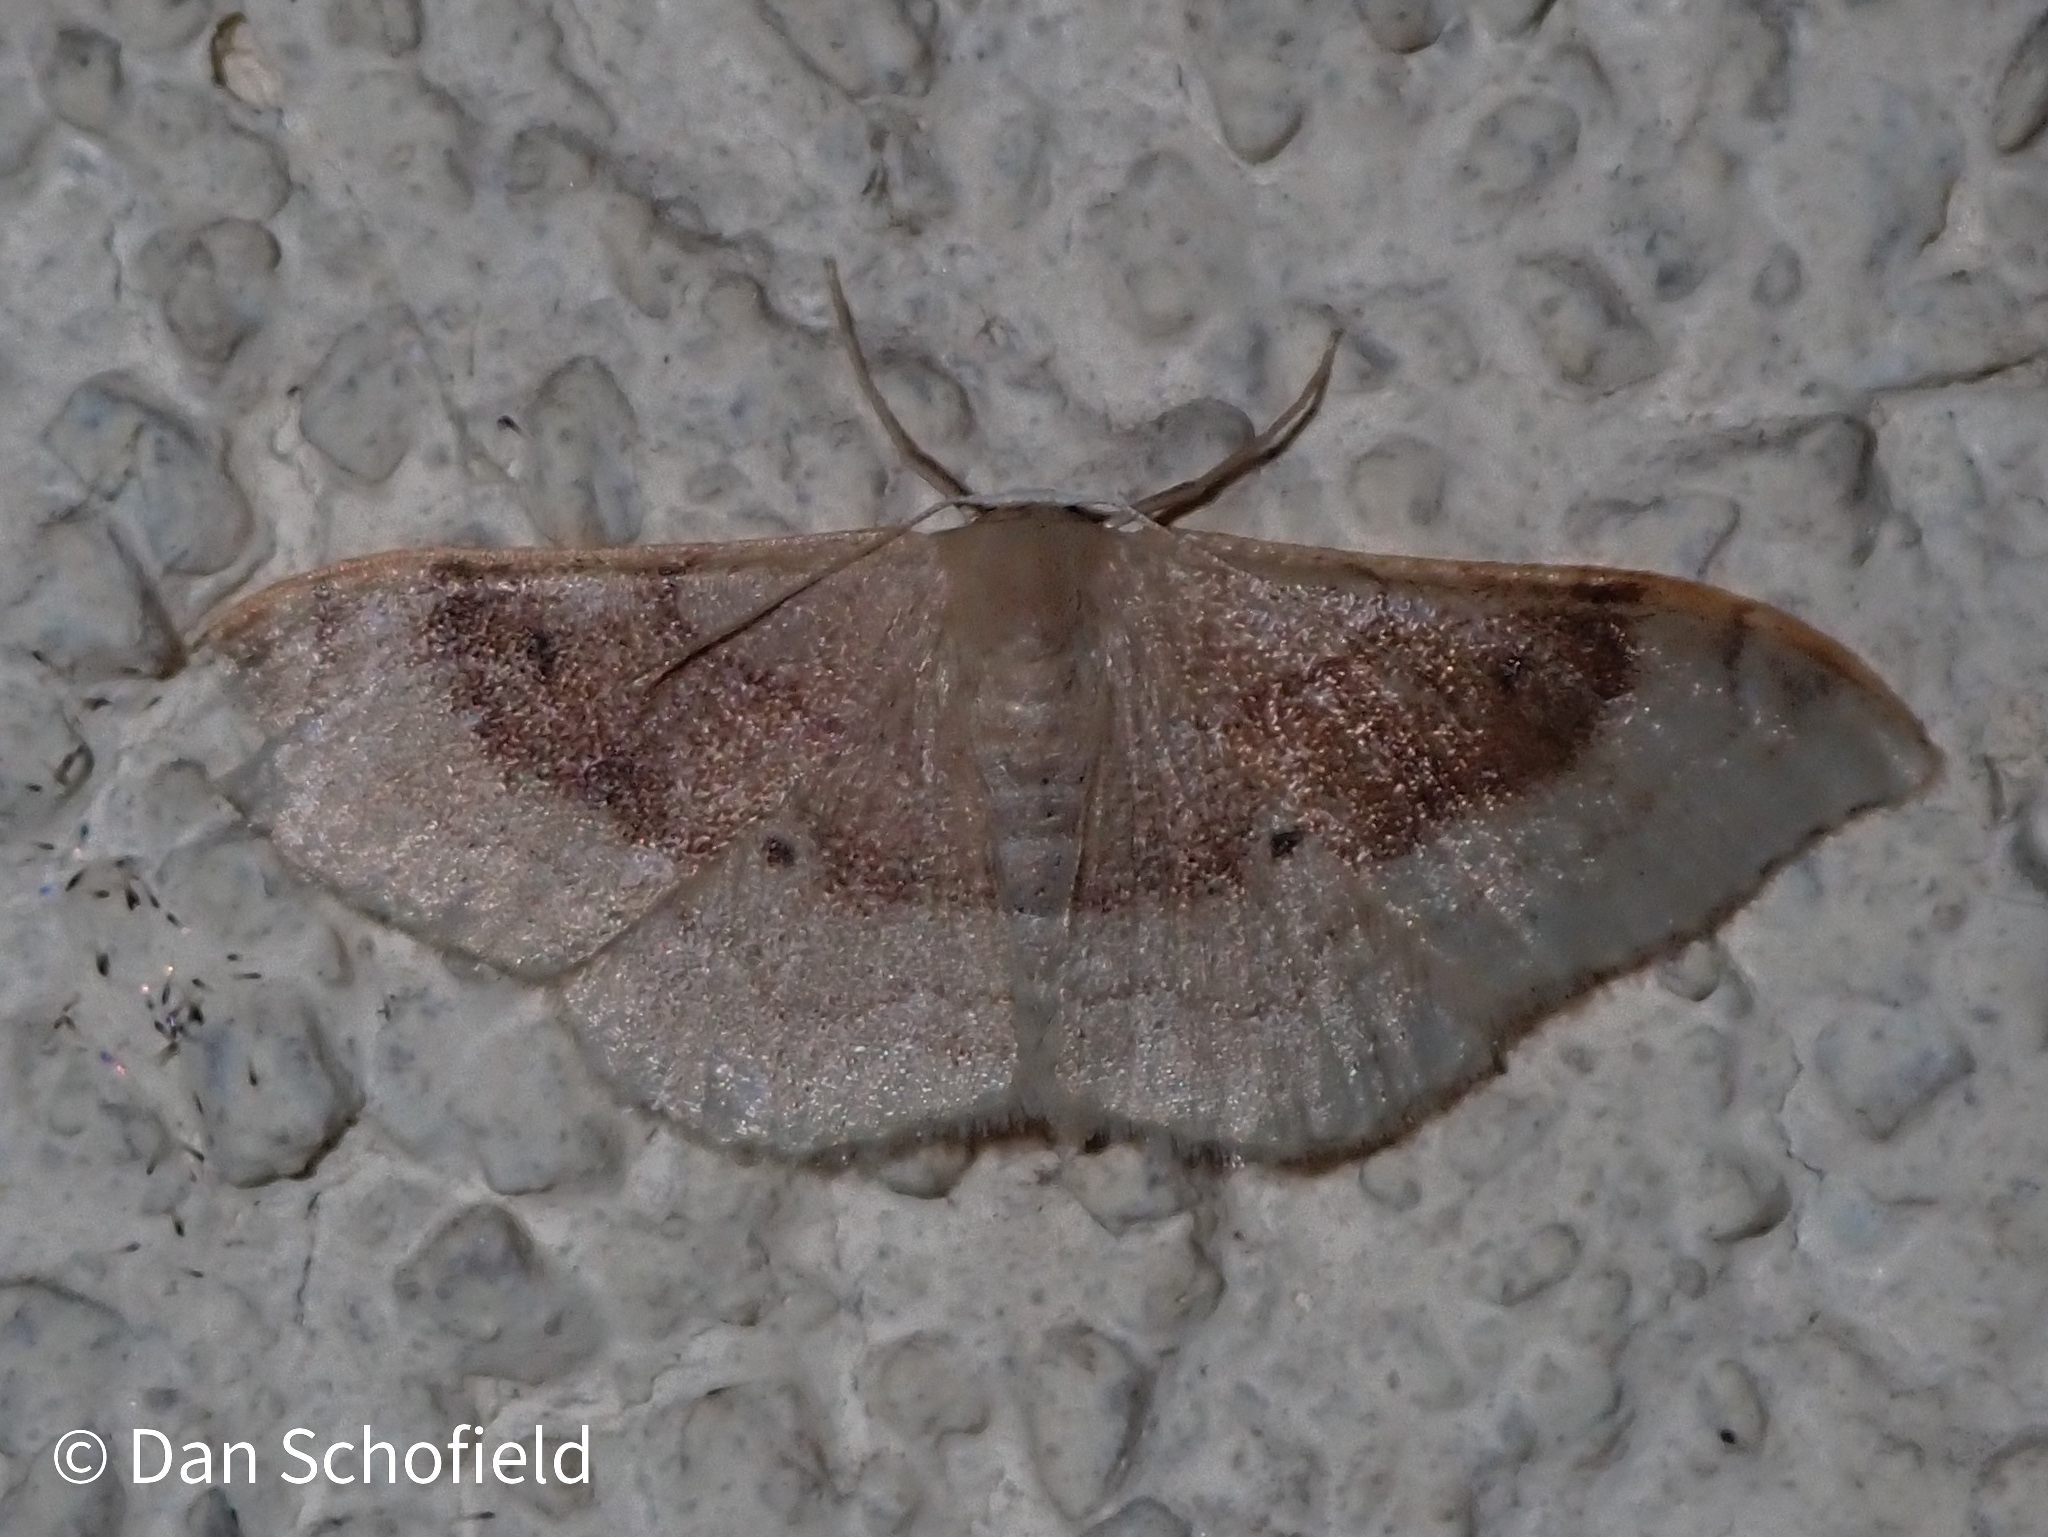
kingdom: Animalia
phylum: Arthropoda
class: Insecta
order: Lepidoptera
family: Geometridae
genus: Idaea
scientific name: Idaea degeneraria
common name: Portland ribbon wave
